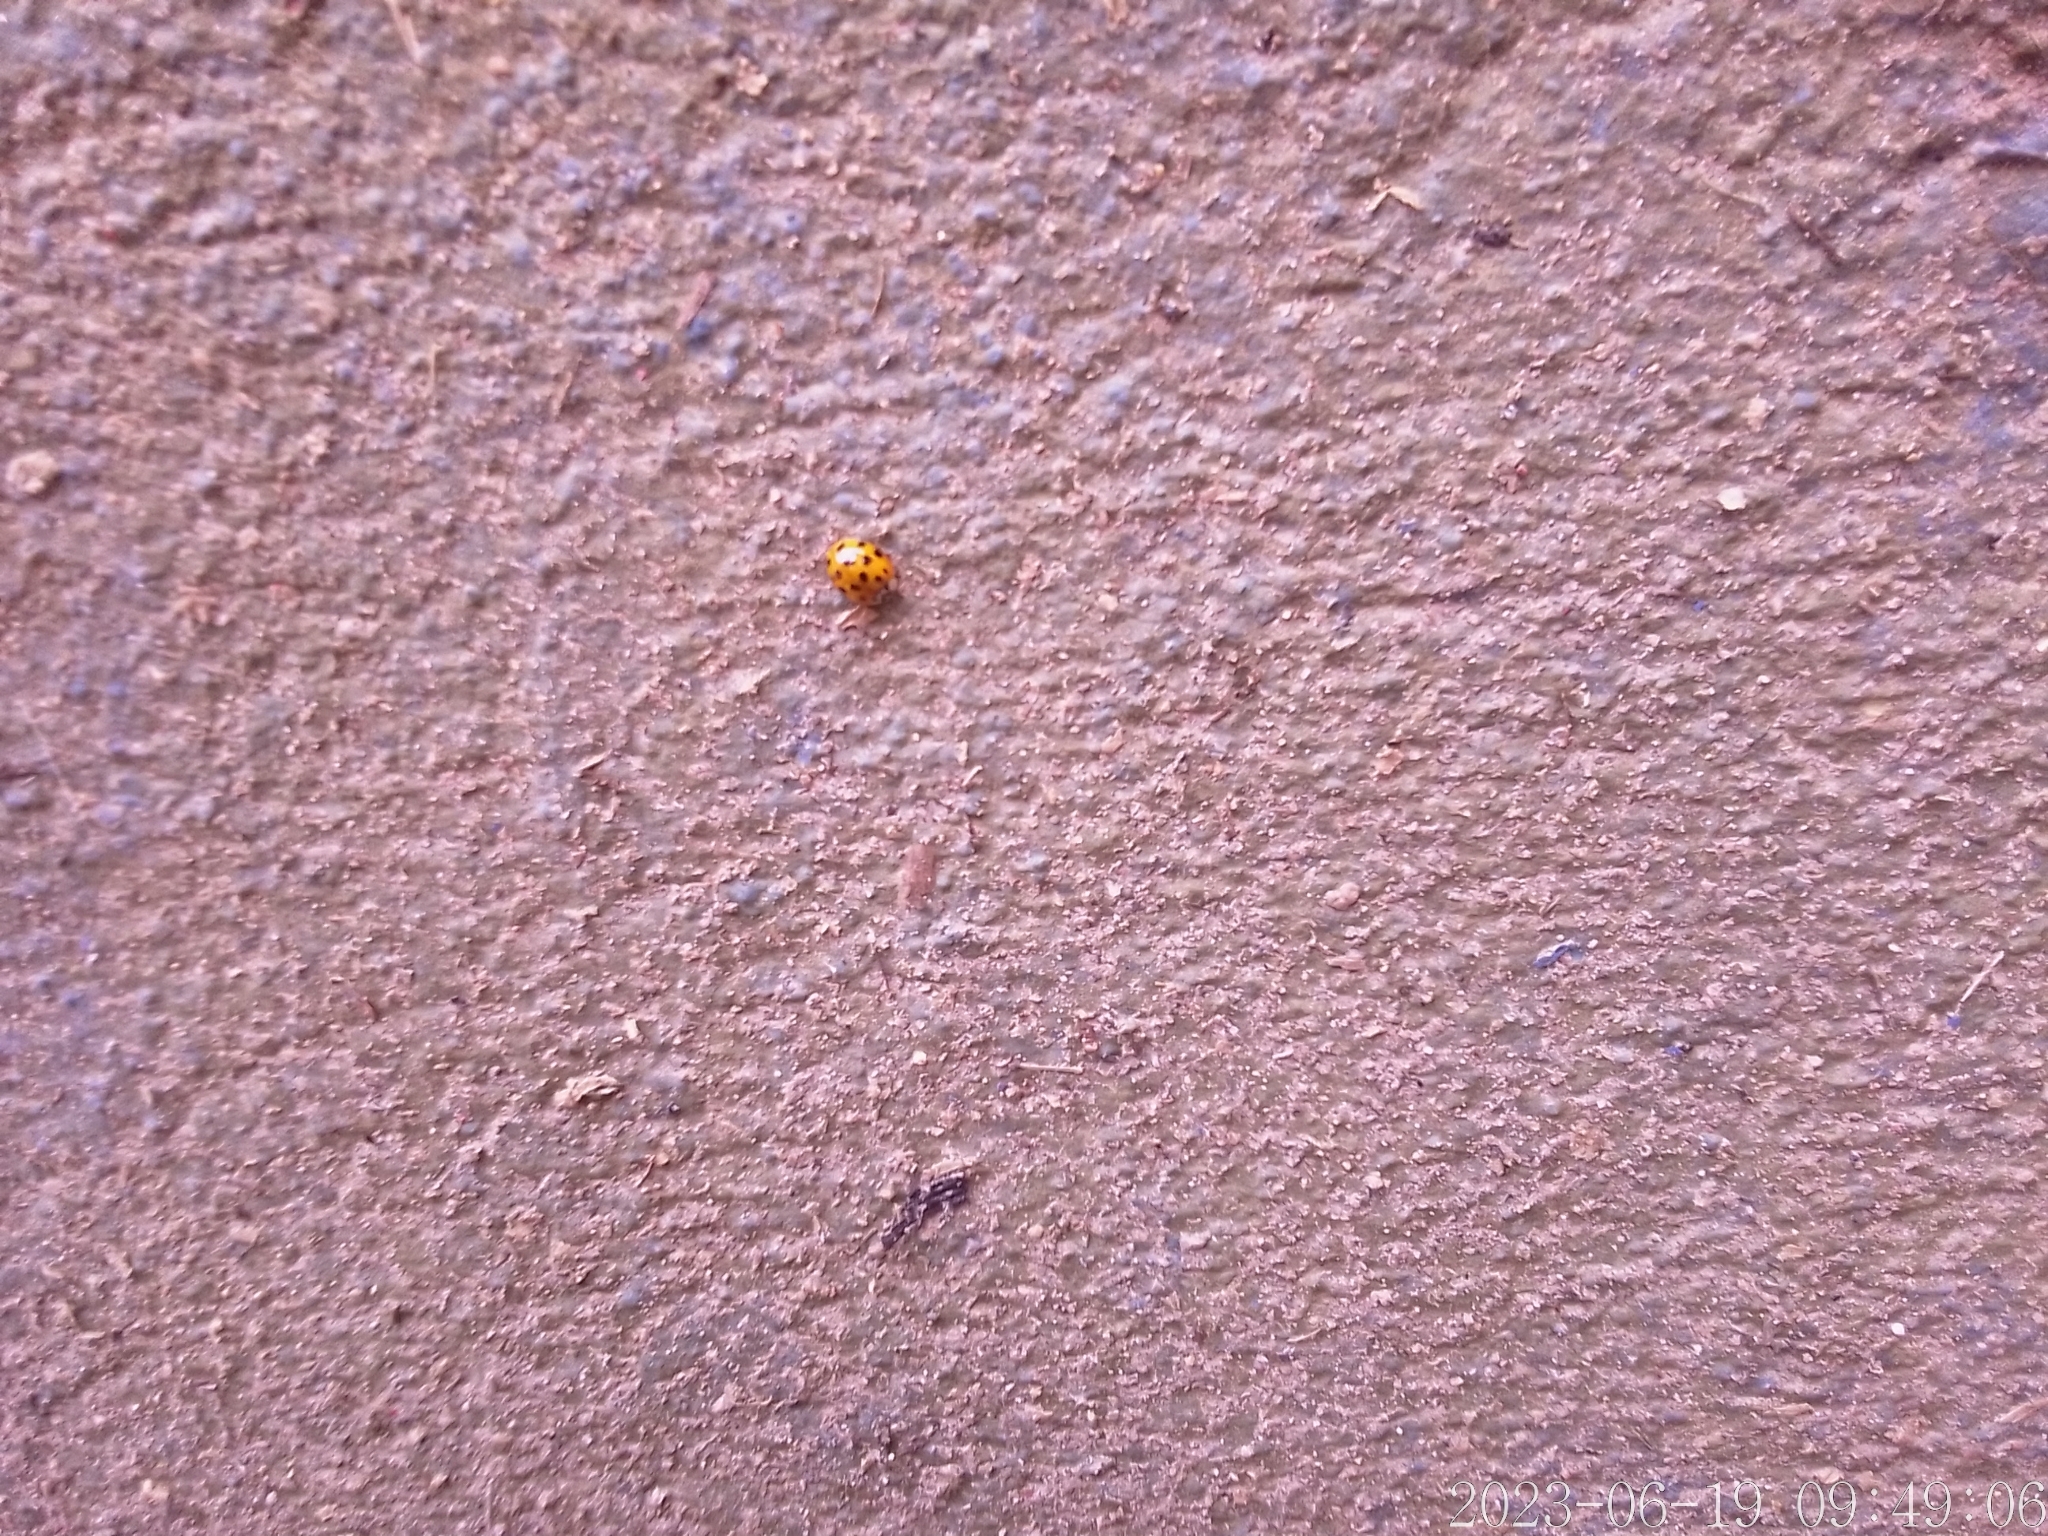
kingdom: Animalia
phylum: Arthropoda
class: Insecta
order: Coleoptera
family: Coccinellidae
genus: Harmonia
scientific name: Harmonia axyridis
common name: Harlequin ladybird
